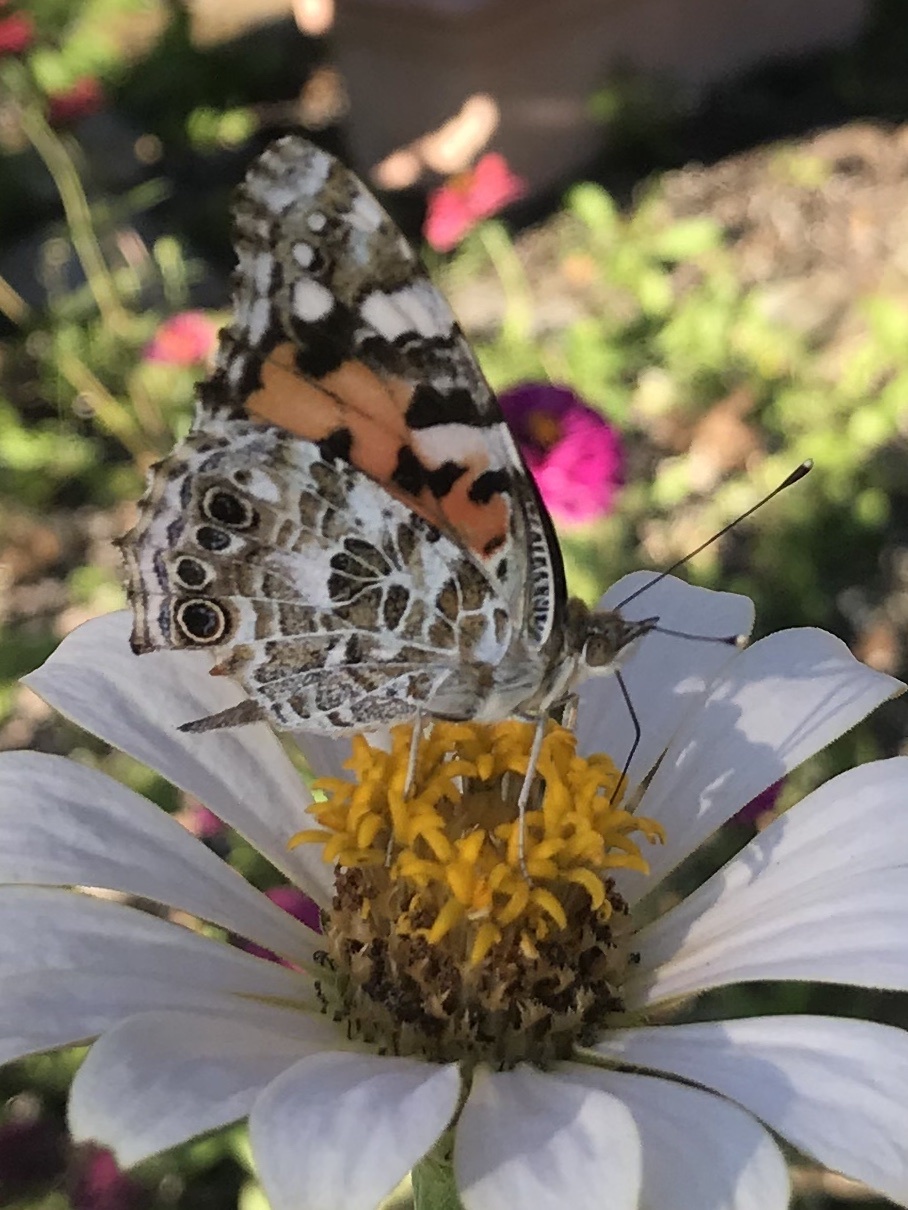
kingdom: Animalia
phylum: Arthropoda
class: Insecta
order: Lepidoptera
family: Nymphalidae
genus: Vanessa
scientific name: Vanessa cardui
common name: Painted lady
